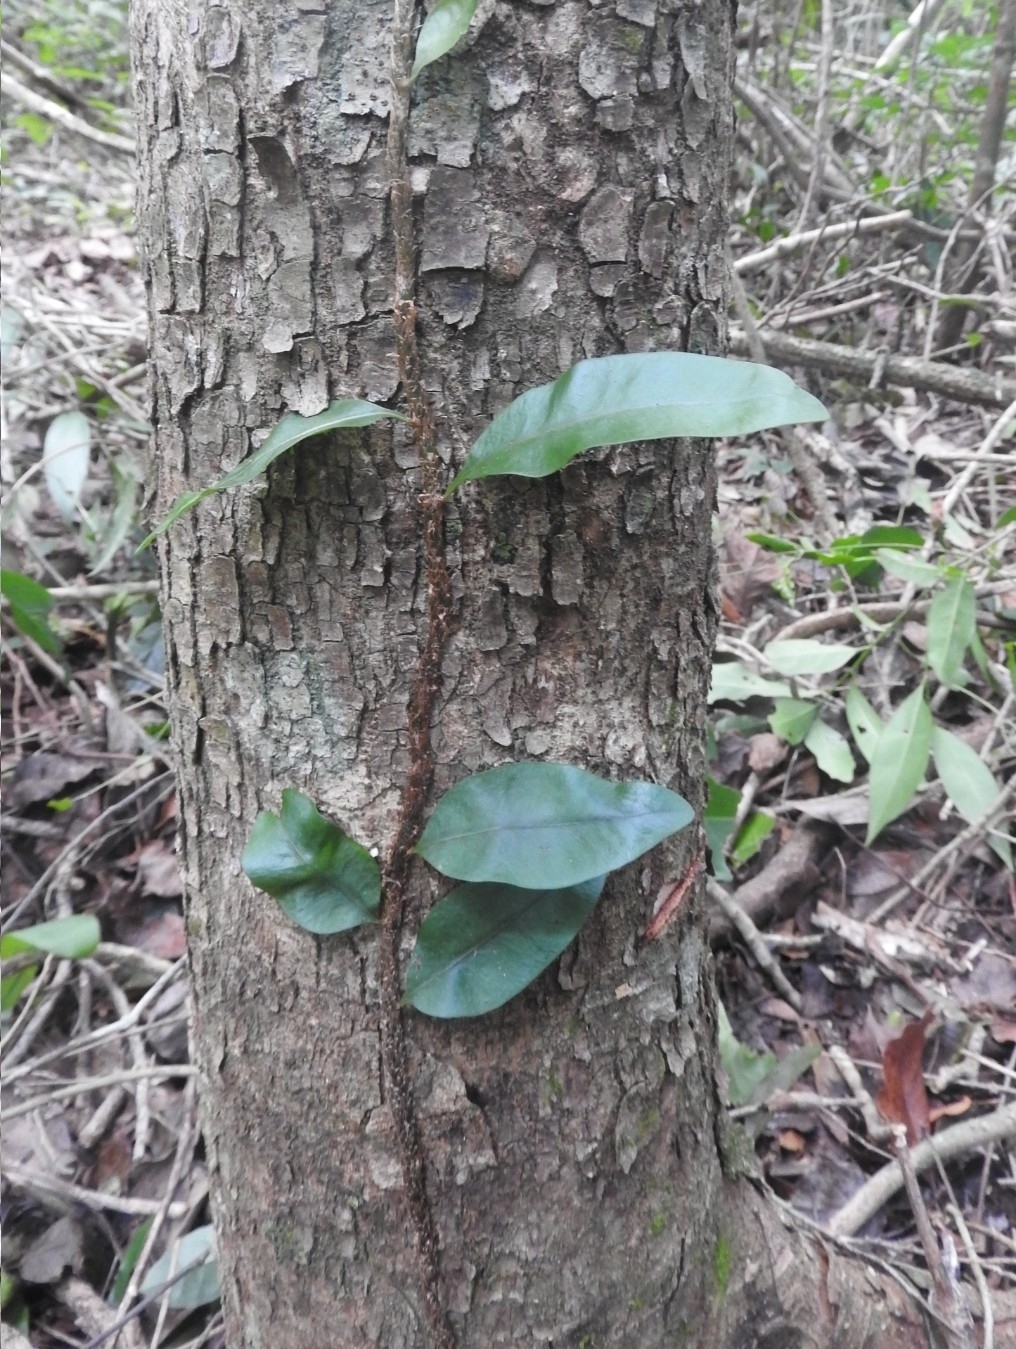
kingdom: Plantae
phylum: Tracheophyta
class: Polypodiopsida
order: Polypodiales
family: Polypodiaceae
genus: Microgramma
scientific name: Microgramma nitida
